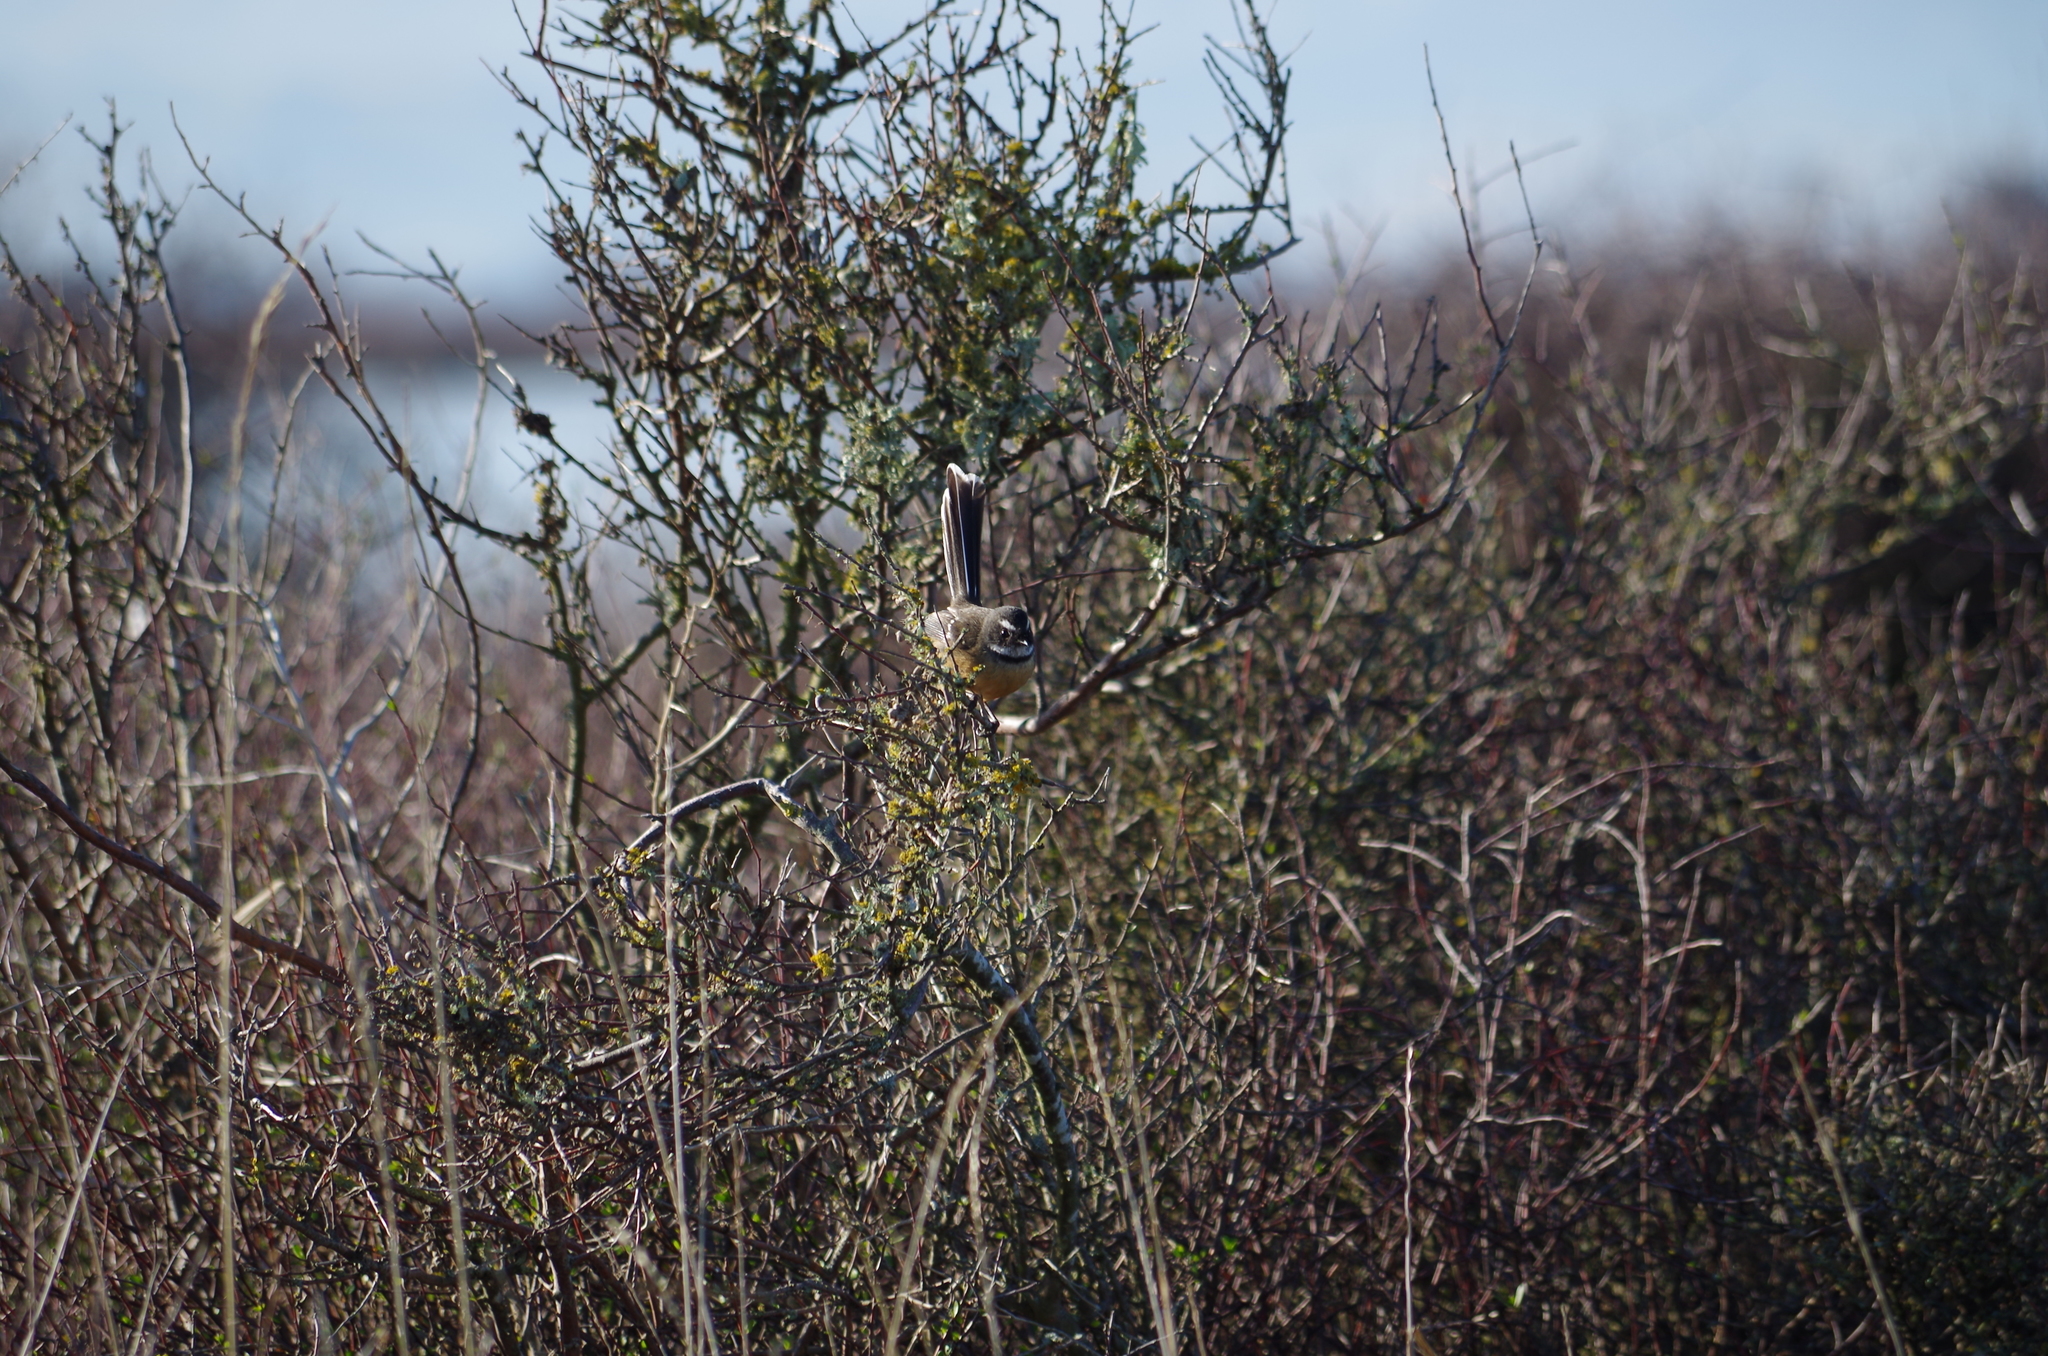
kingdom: Animalia
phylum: Chordata
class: Aves
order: Passeriformes
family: Rhipiduridae
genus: Rhipidura
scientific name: Rhipidura fuliginosa
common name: New zealand fantail
